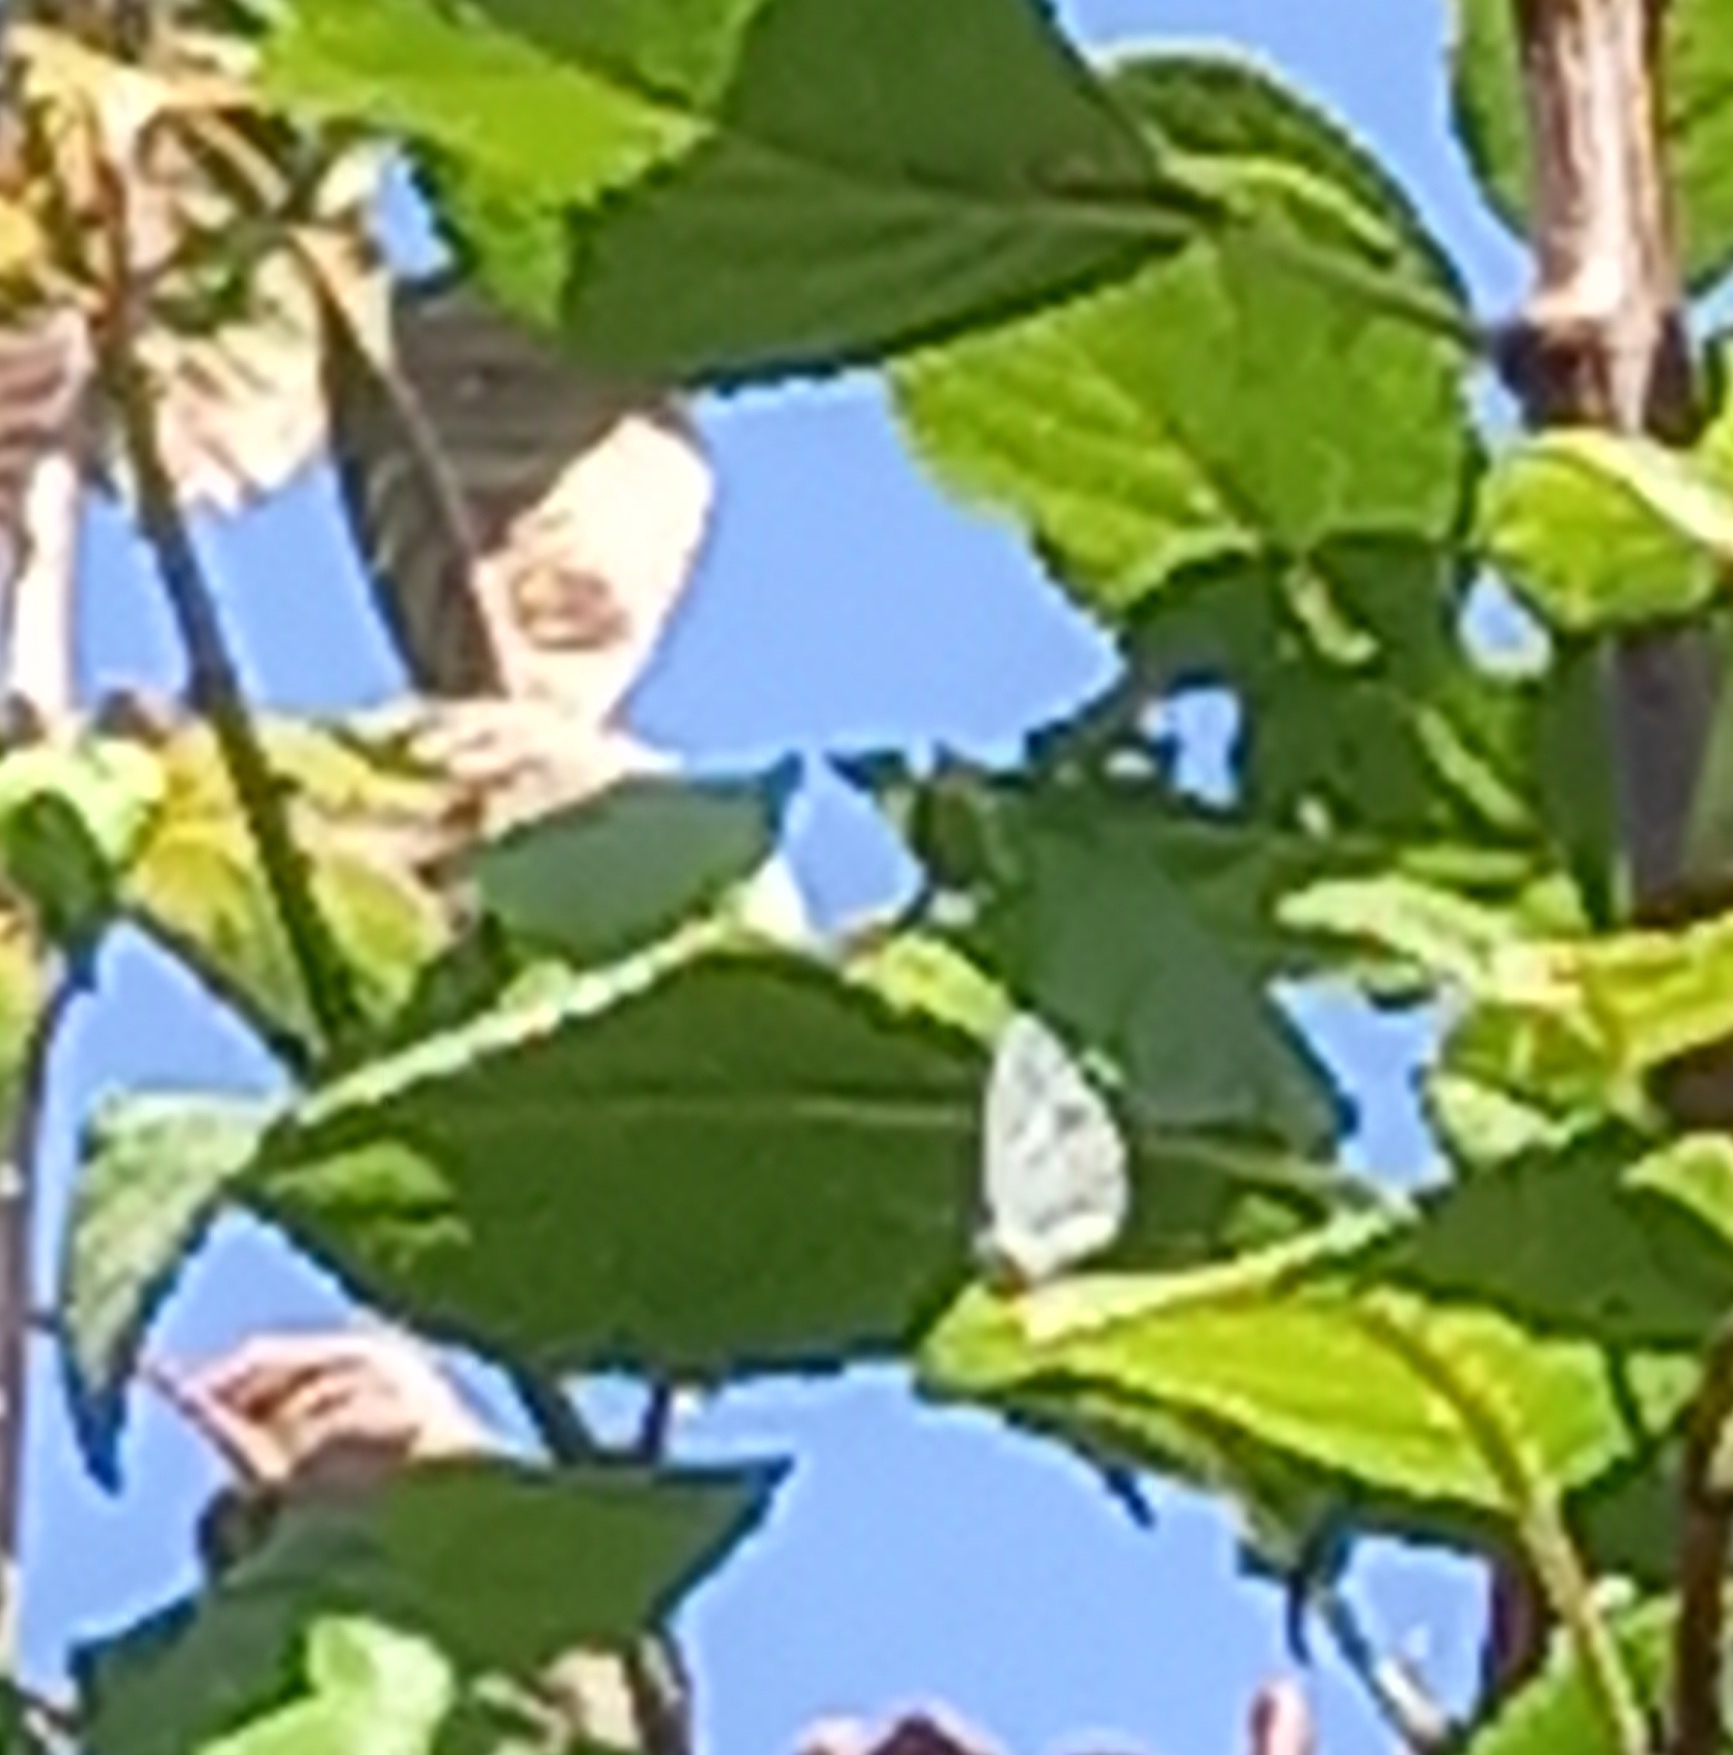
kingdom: Animalia
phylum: Arthropoda
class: Insecta
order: Lepidoptera
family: Lycaenidae
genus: Celastrina
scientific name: Celastrina argiolus
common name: Holly blue
